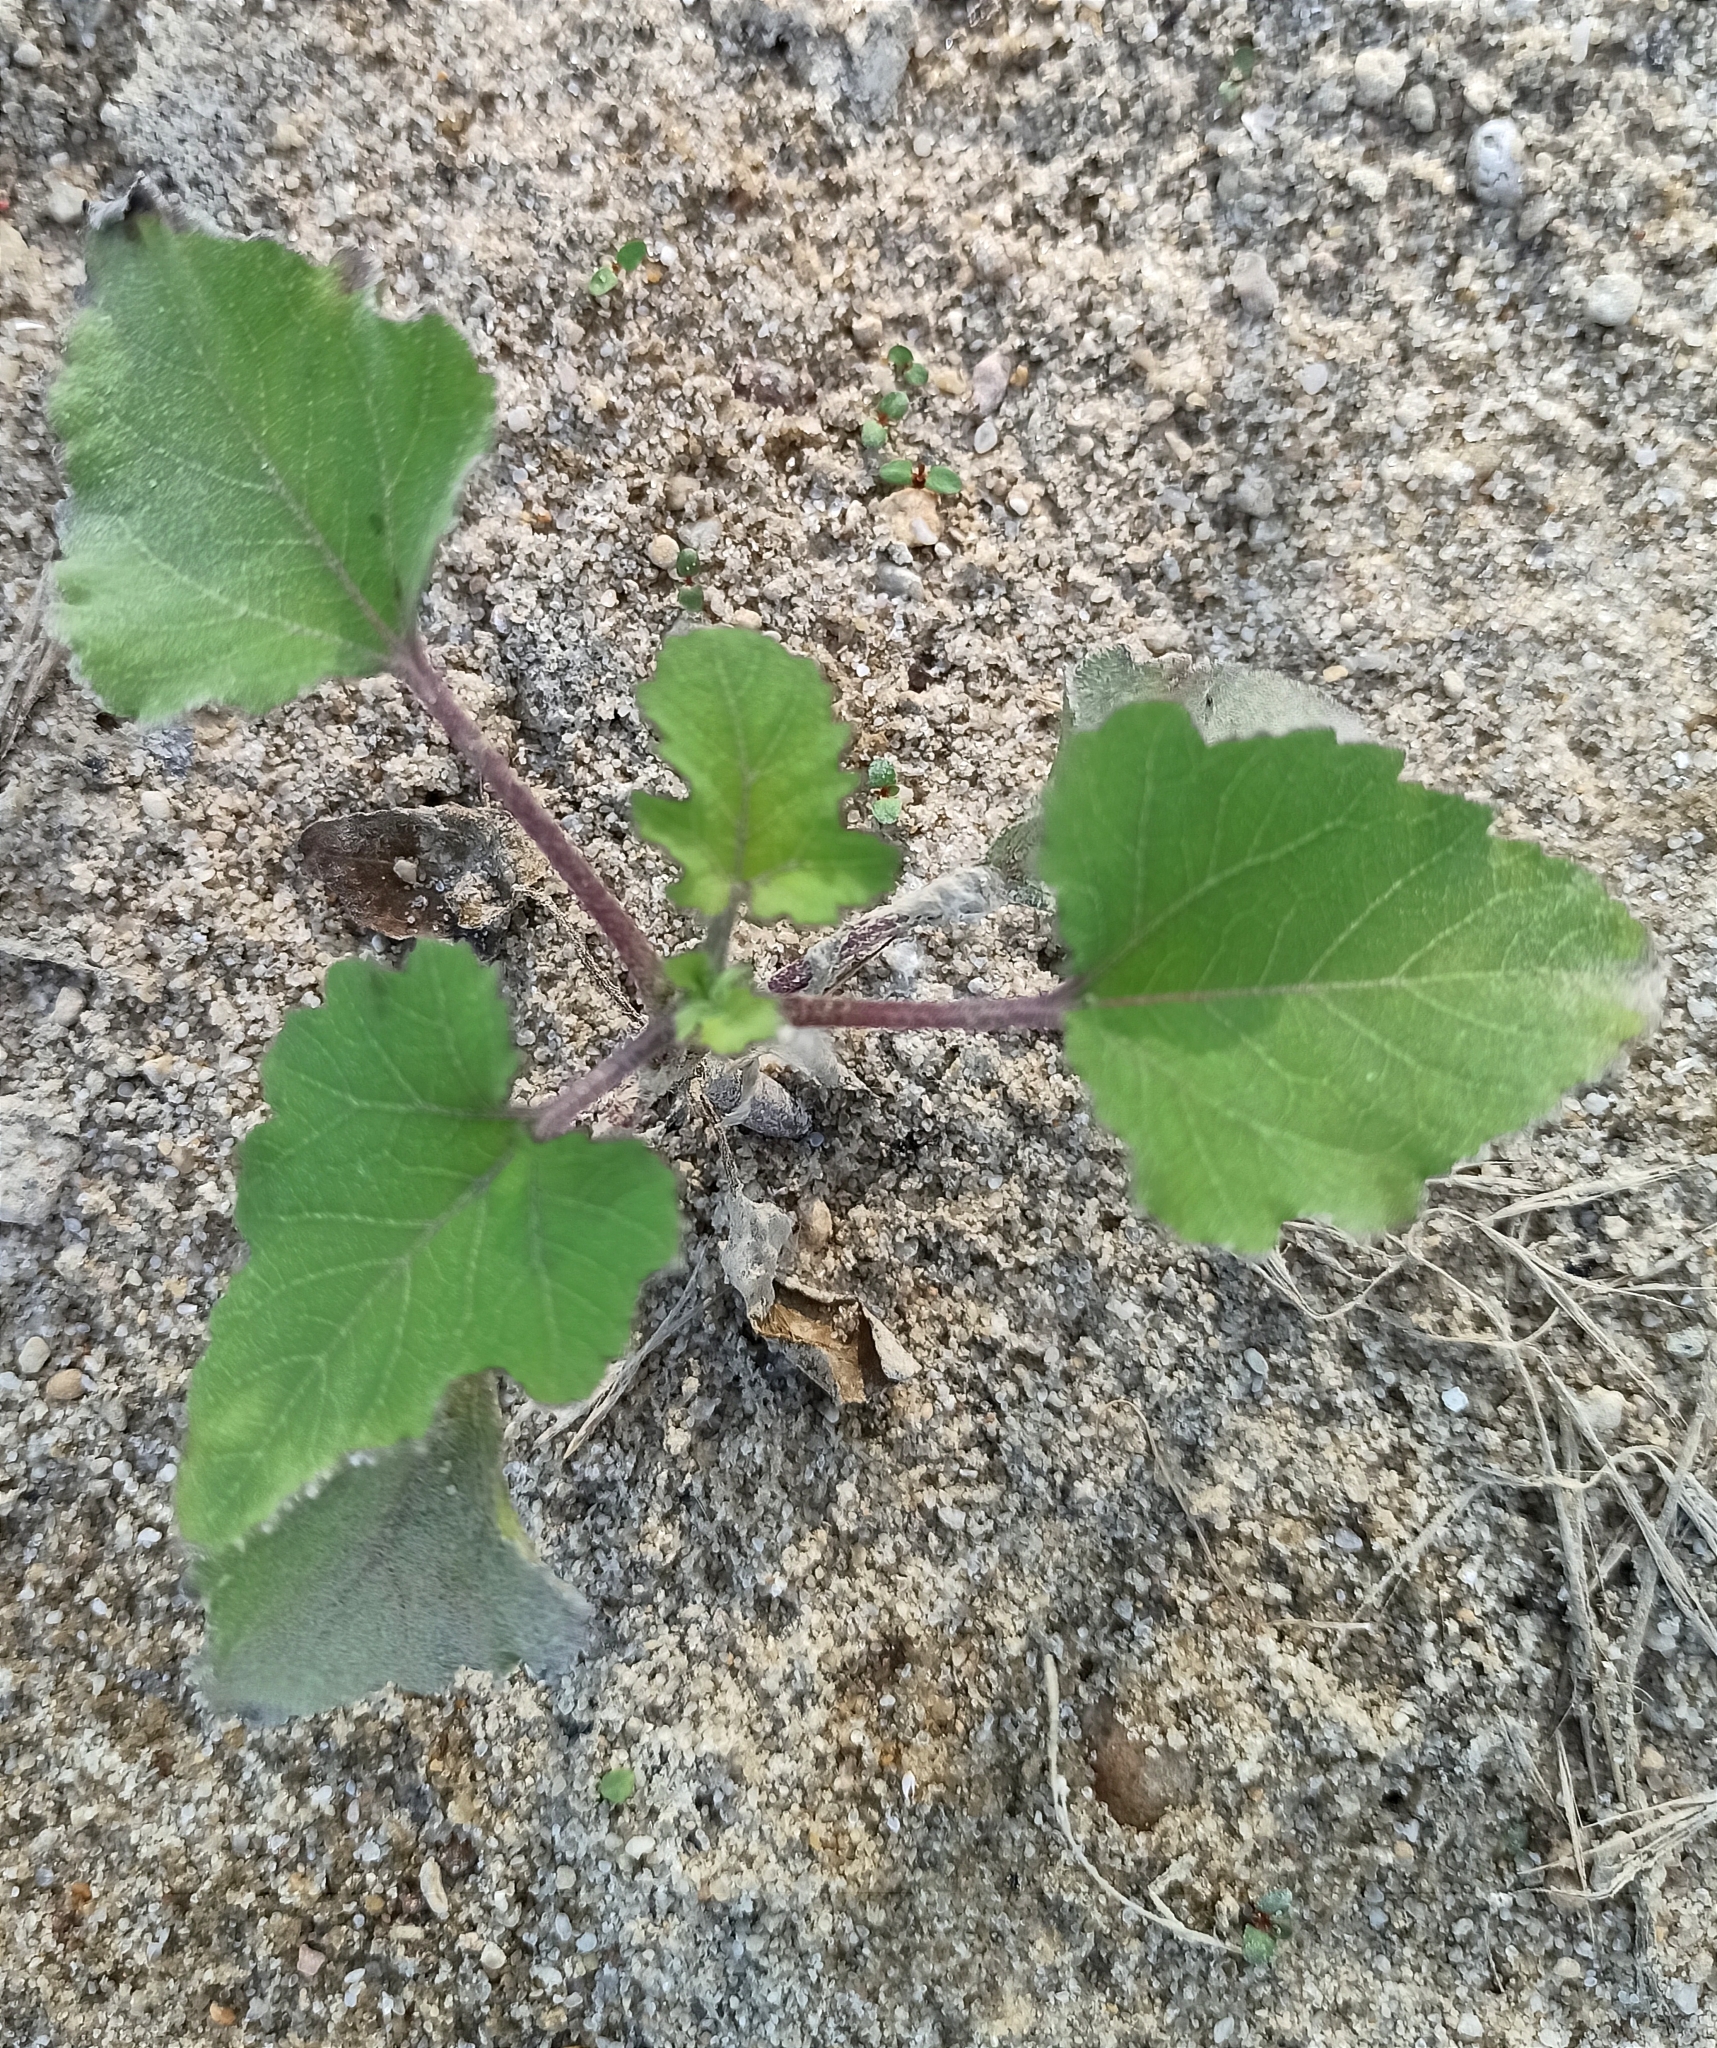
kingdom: Plantae
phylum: Tracheophyta
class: Magnoliopsida
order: Asterales
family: Asteraceae
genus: Xanthium
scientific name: Xanthium orientale
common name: Californian burr
